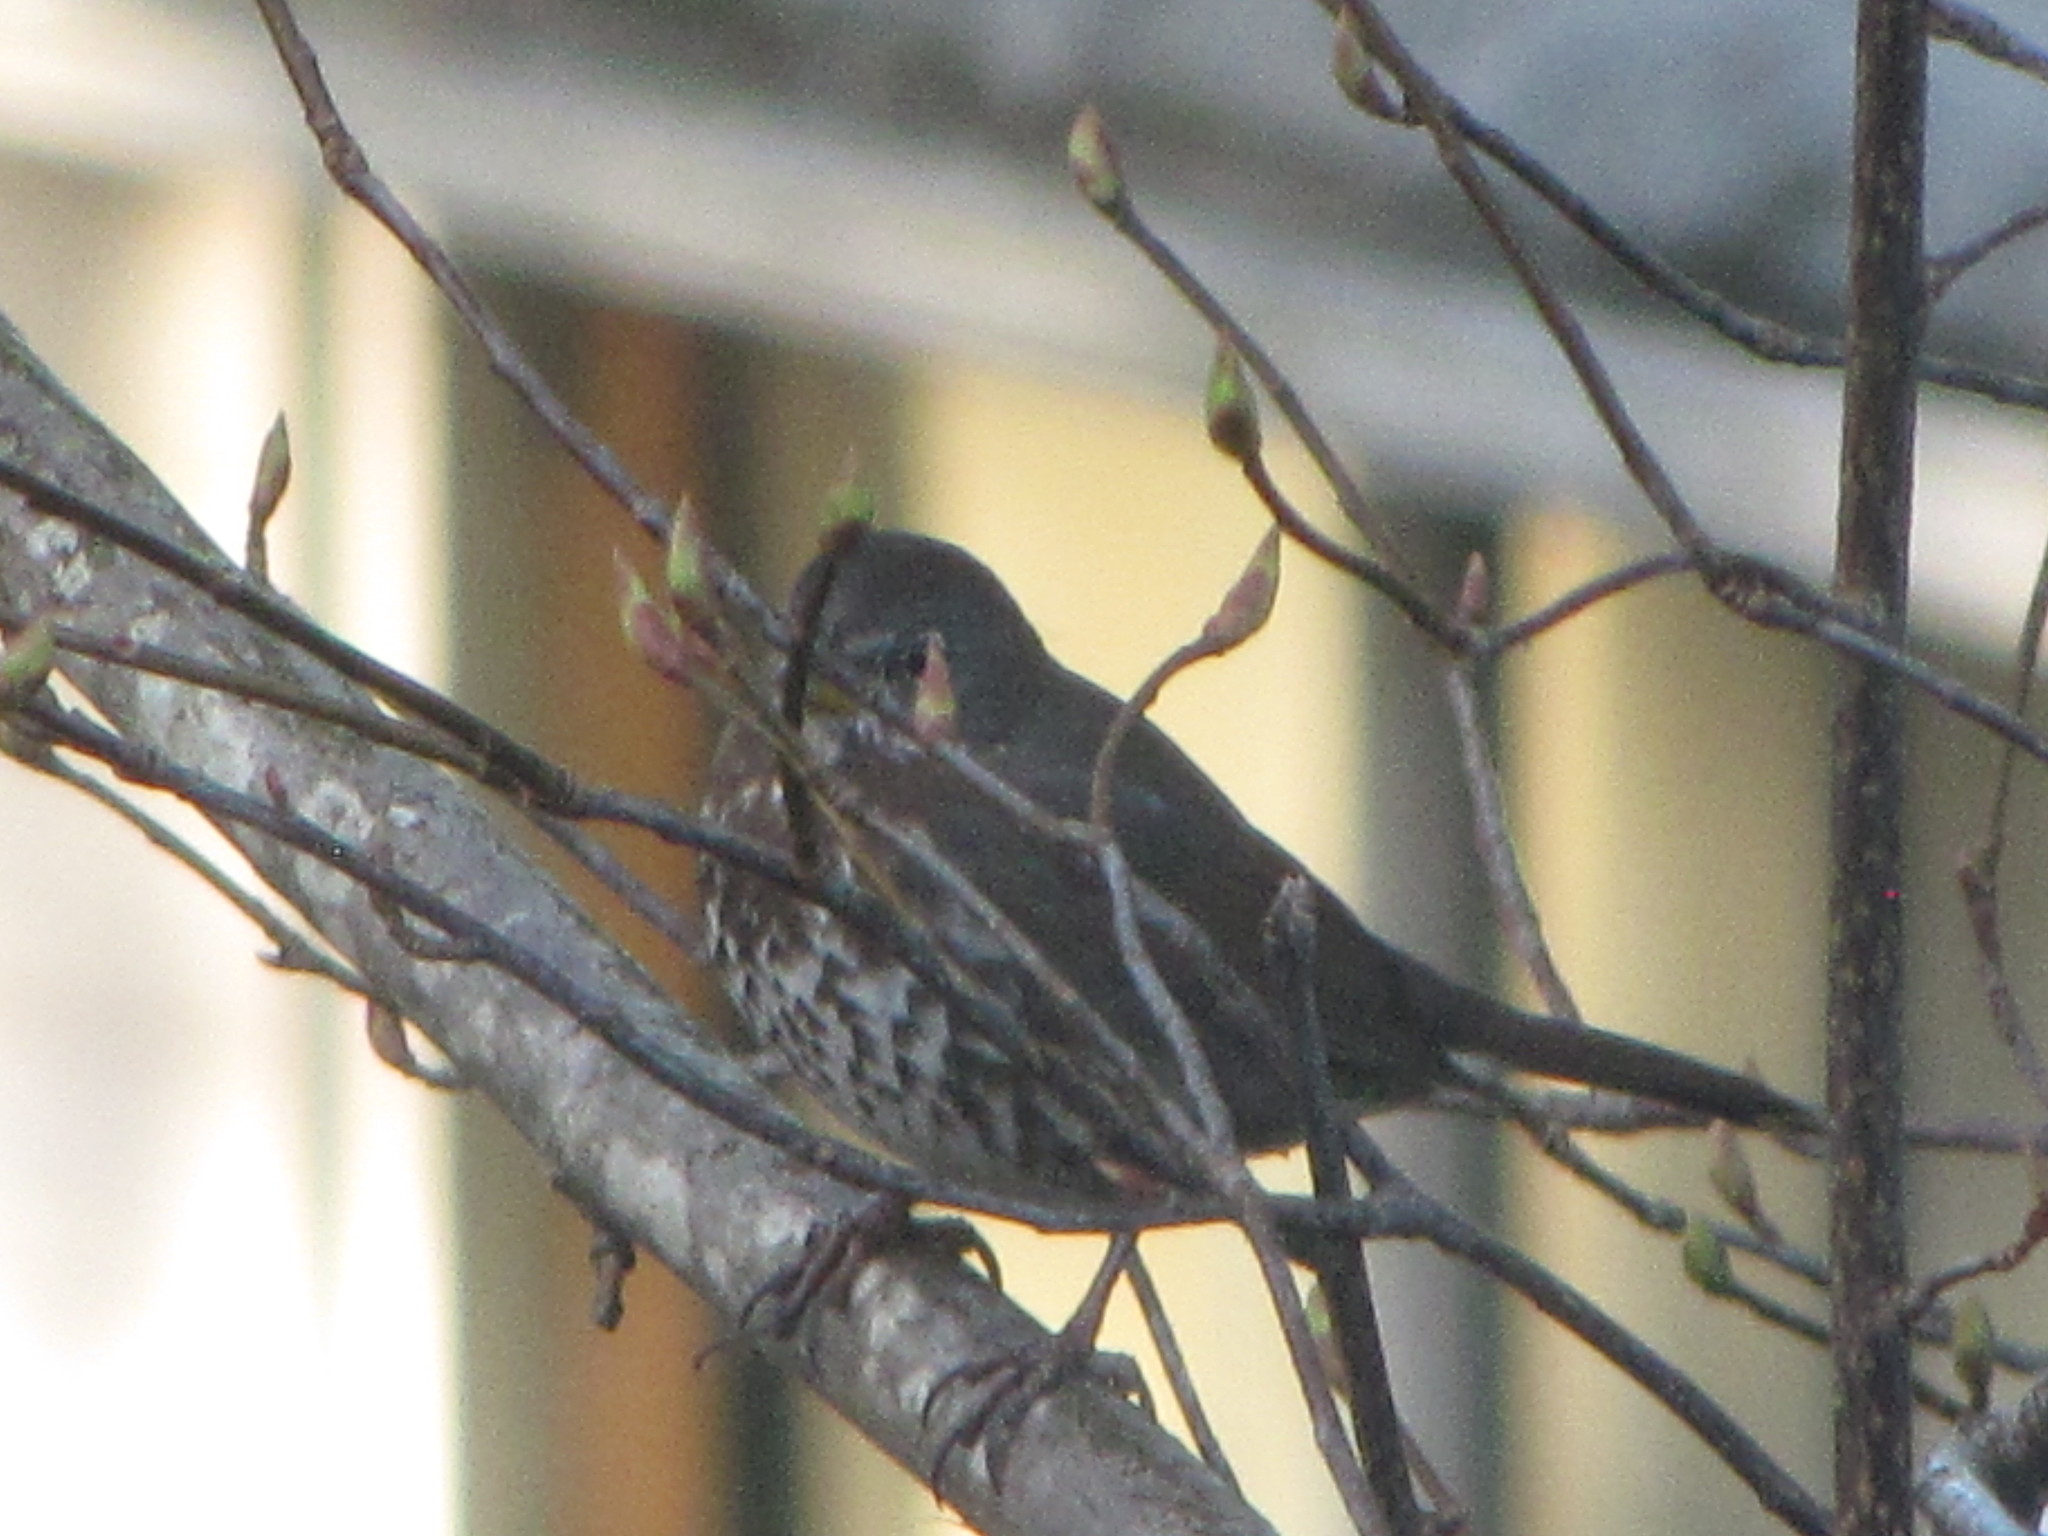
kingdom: Animalia
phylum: Chordata
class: Aves
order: Passeriformes
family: Passerellidae
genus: Passerella
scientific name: Passerella iliaca
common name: Fox sparrow
